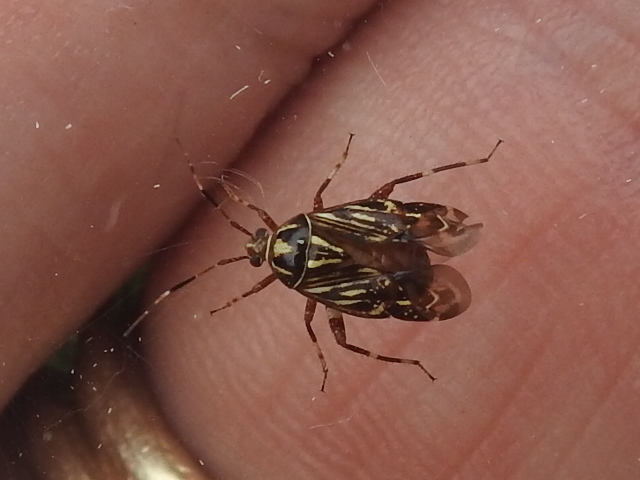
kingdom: Animalia
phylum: Arthropoda
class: Insecta
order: Hemiptera
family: Miridae
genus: Taedia
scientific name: Taedia virgulata
